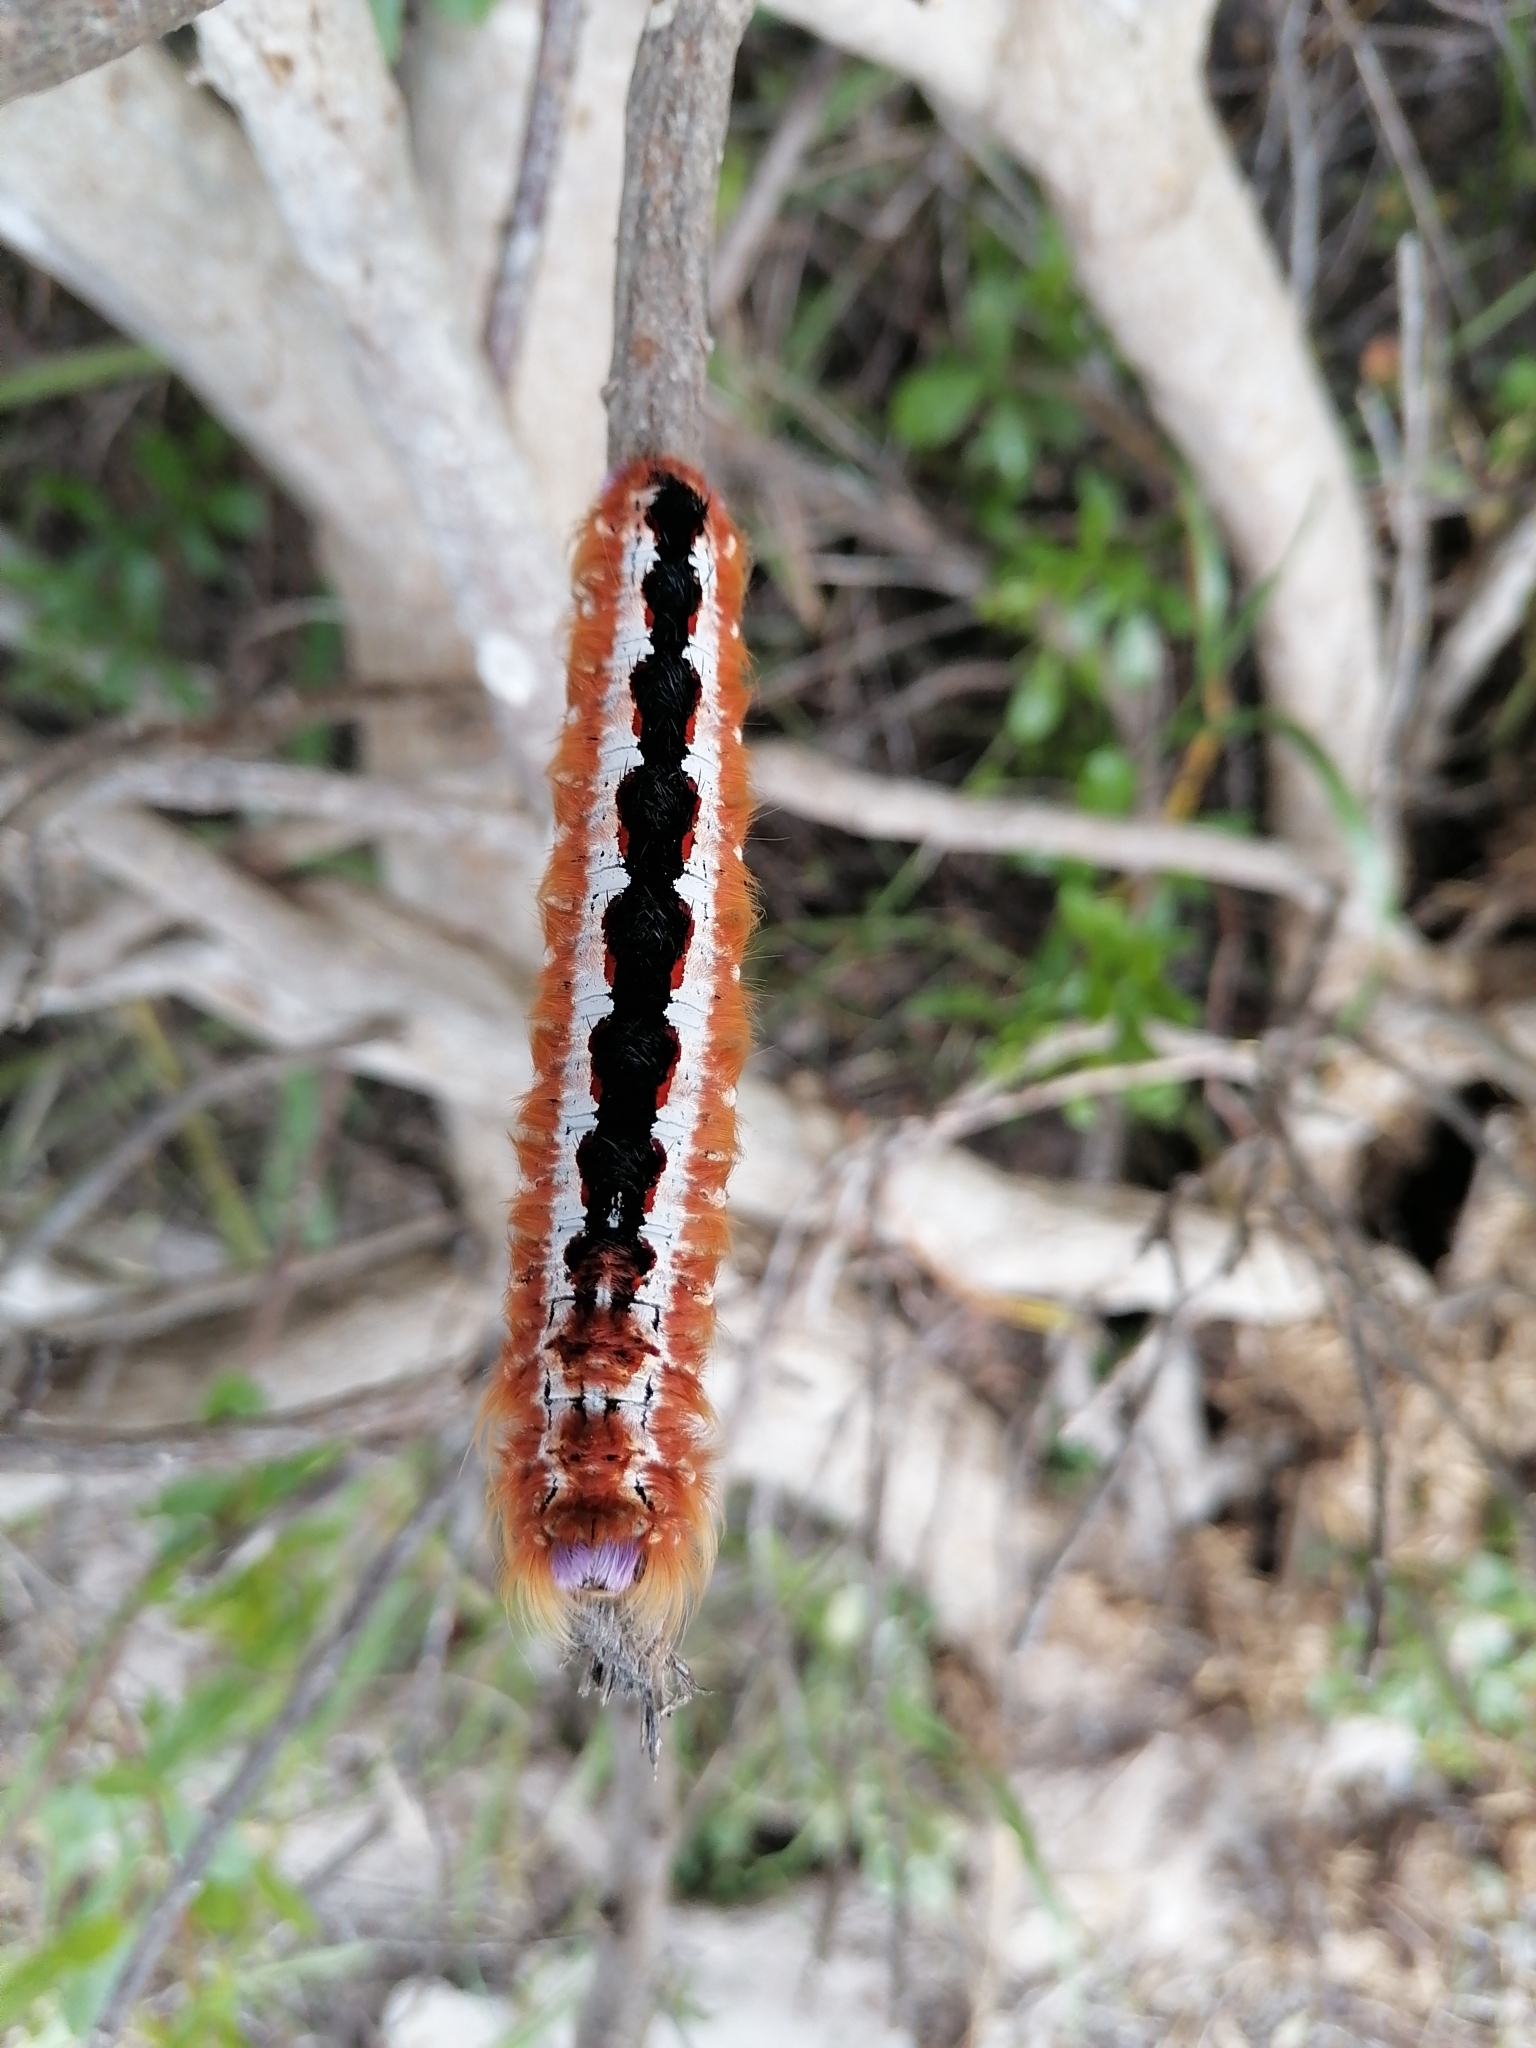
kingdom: Animalia
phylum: Arthropoda
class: Insecta
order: Lepidoptera
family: Lasiocampidae
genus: Eutricha
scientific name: Eutricha capensis
